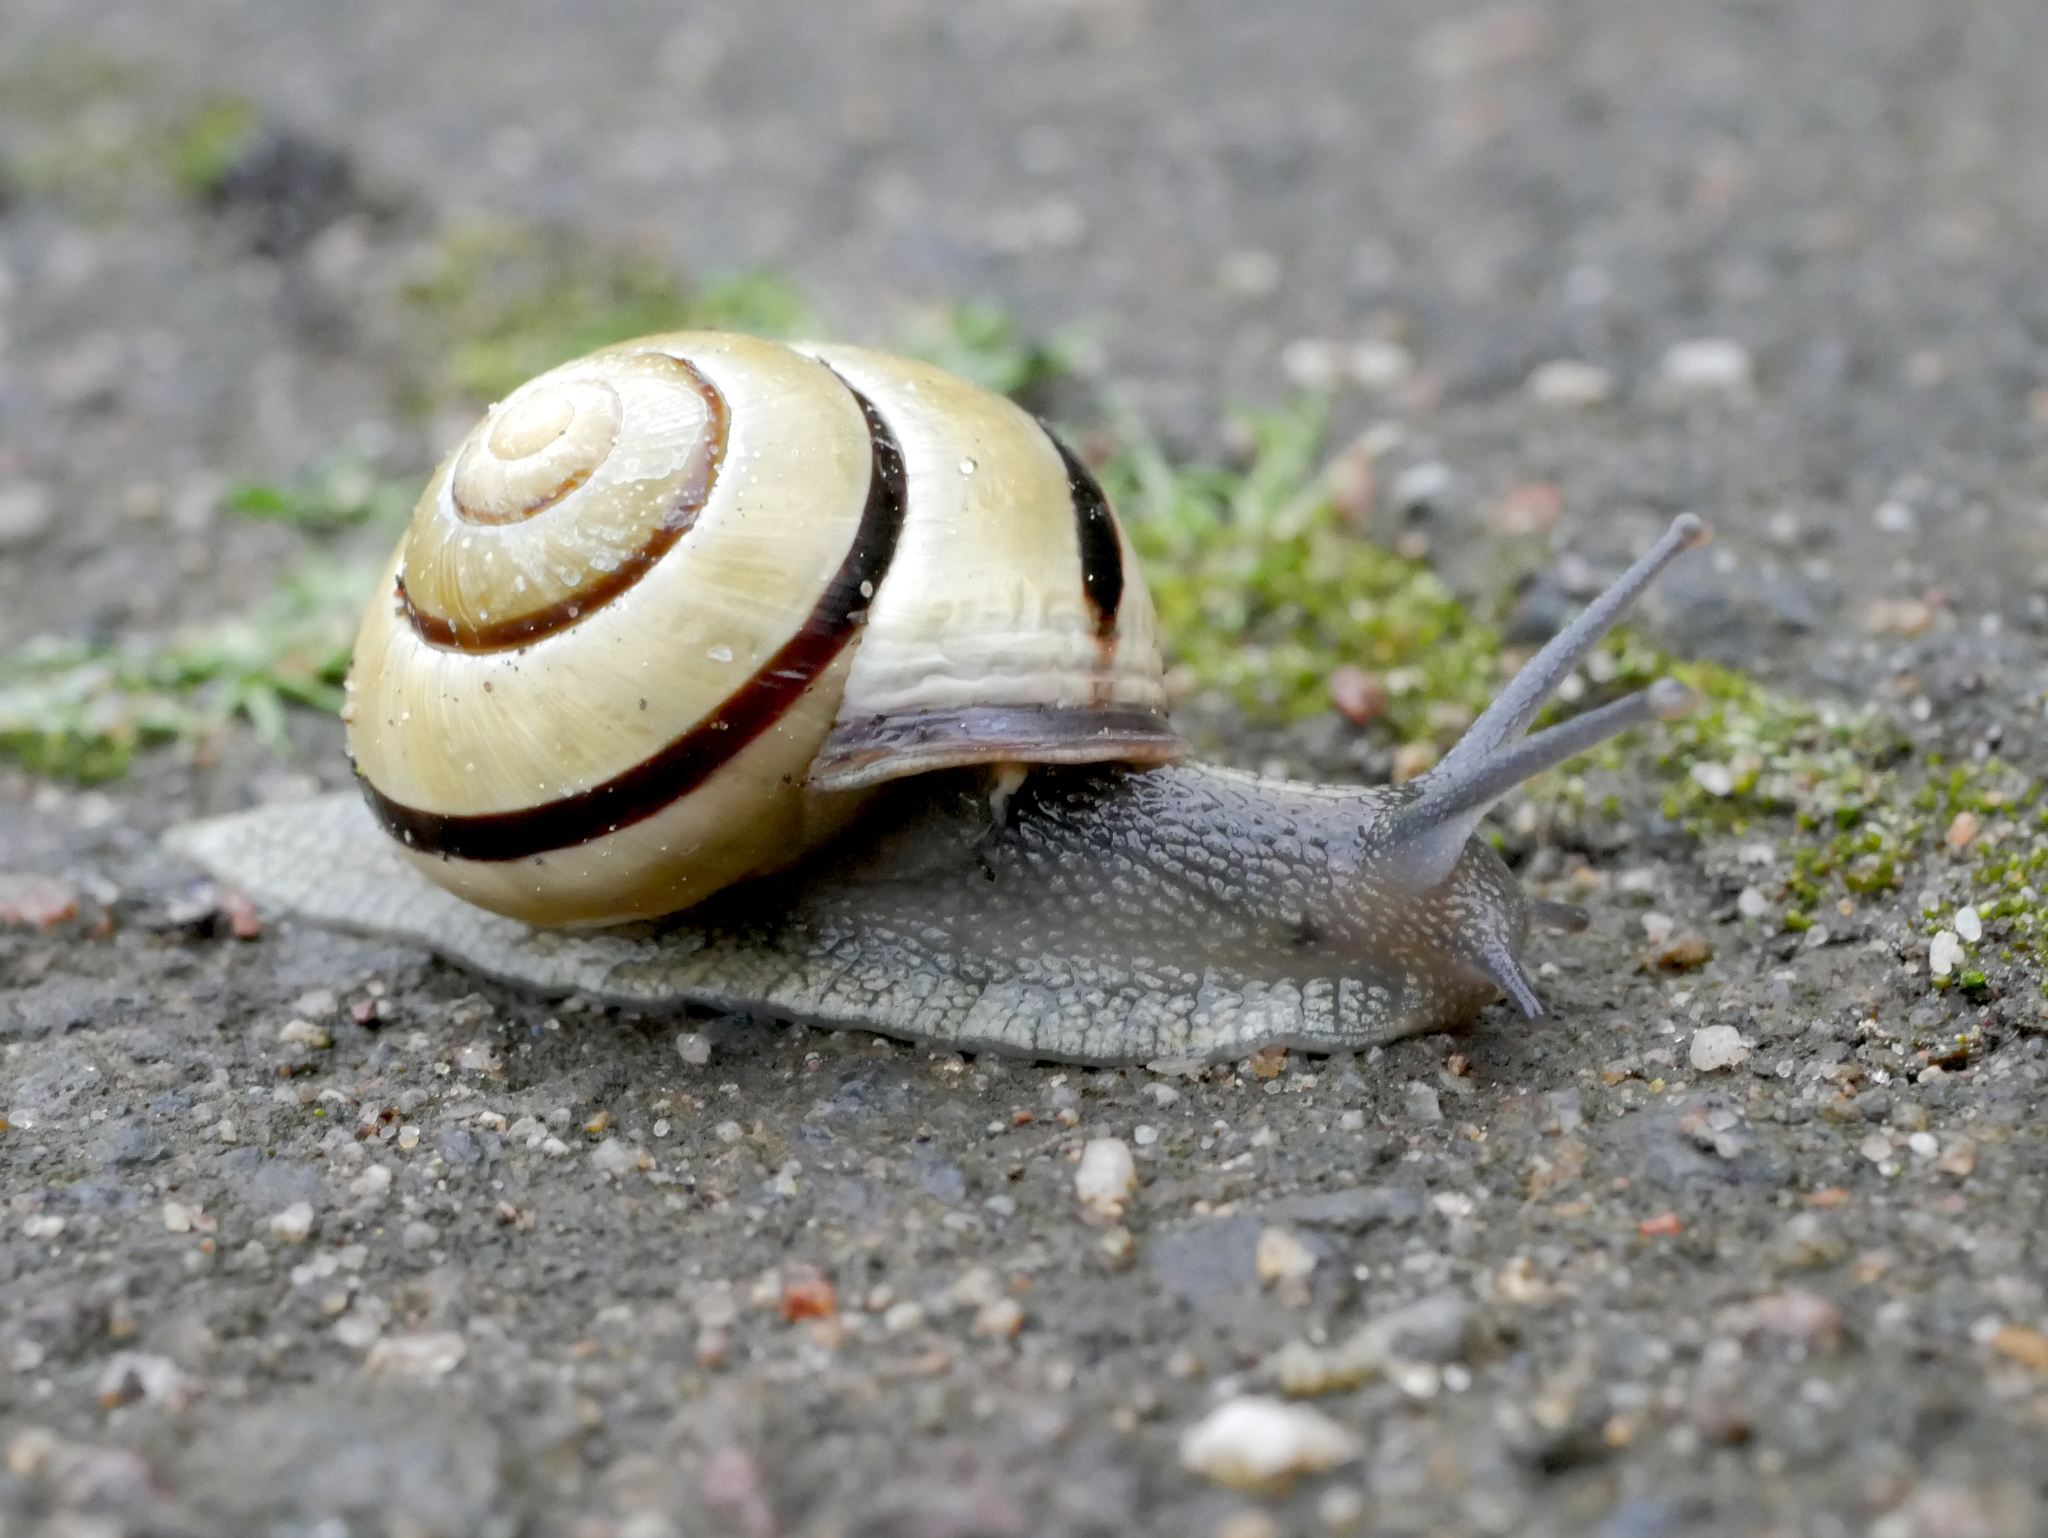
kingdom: Animalia
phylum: Mollusca
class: Gastropoda
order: Stylommatophora
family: Helicidae
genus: Cepaea
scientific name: Cepaea nemoralis
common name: Grovesnail
